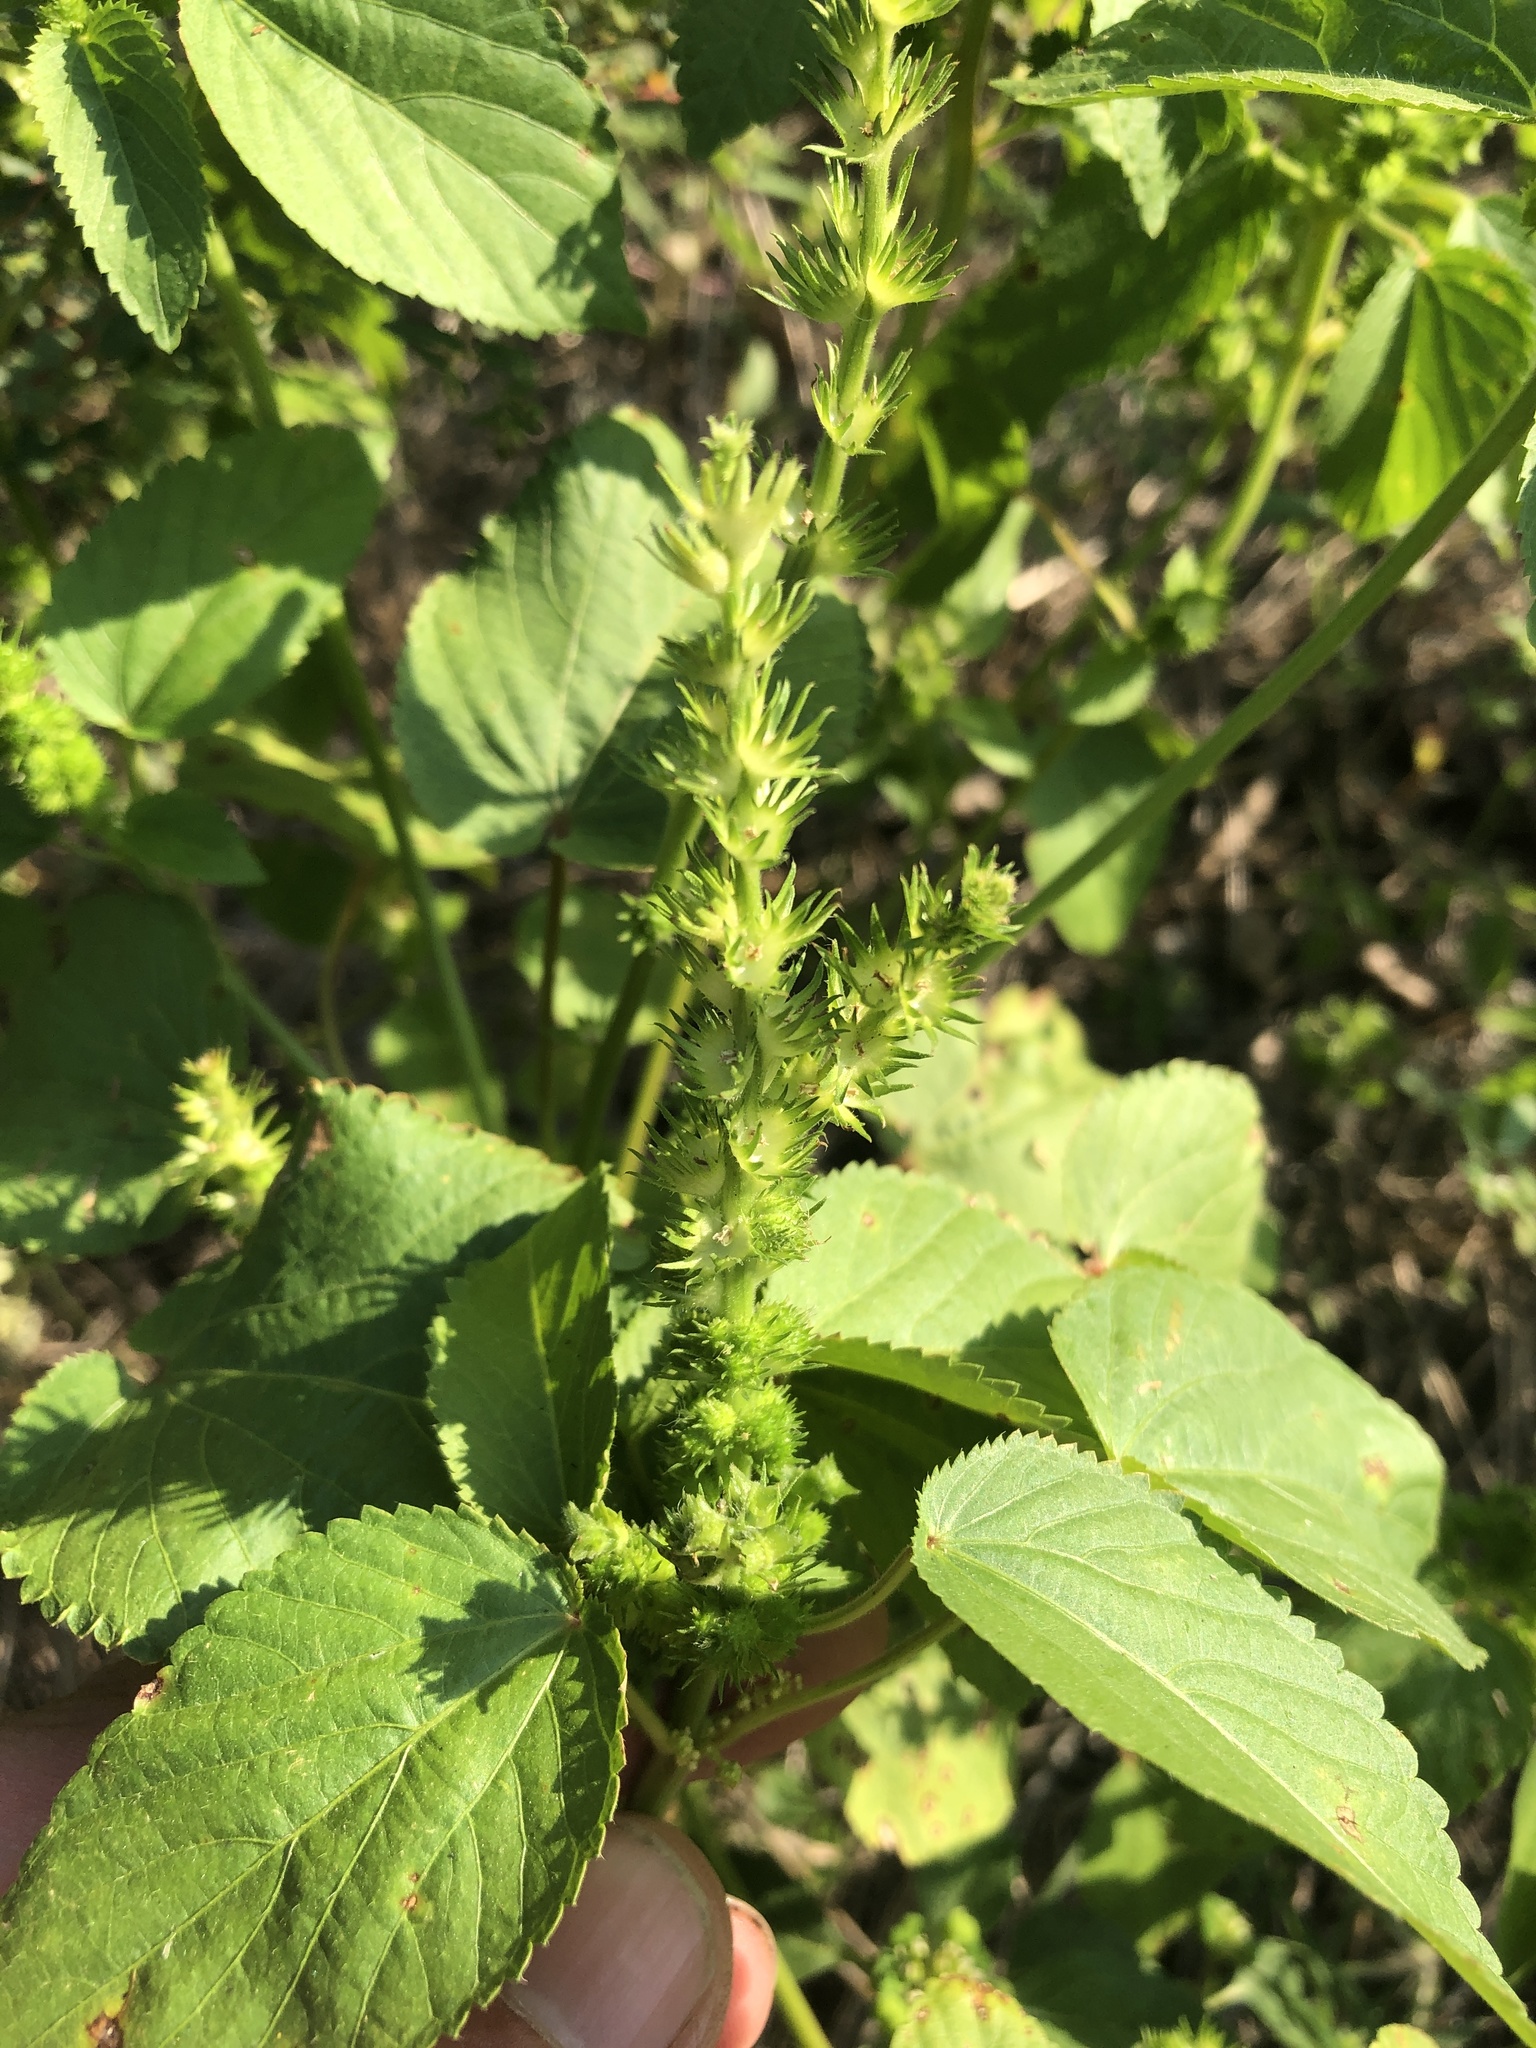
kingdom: Plantae
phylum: Tracheophyta
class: Magnoliopsida
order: Malpighiales
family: Euphorbiaceae
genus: Acalypha
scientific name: Acalypha ostryifolia
